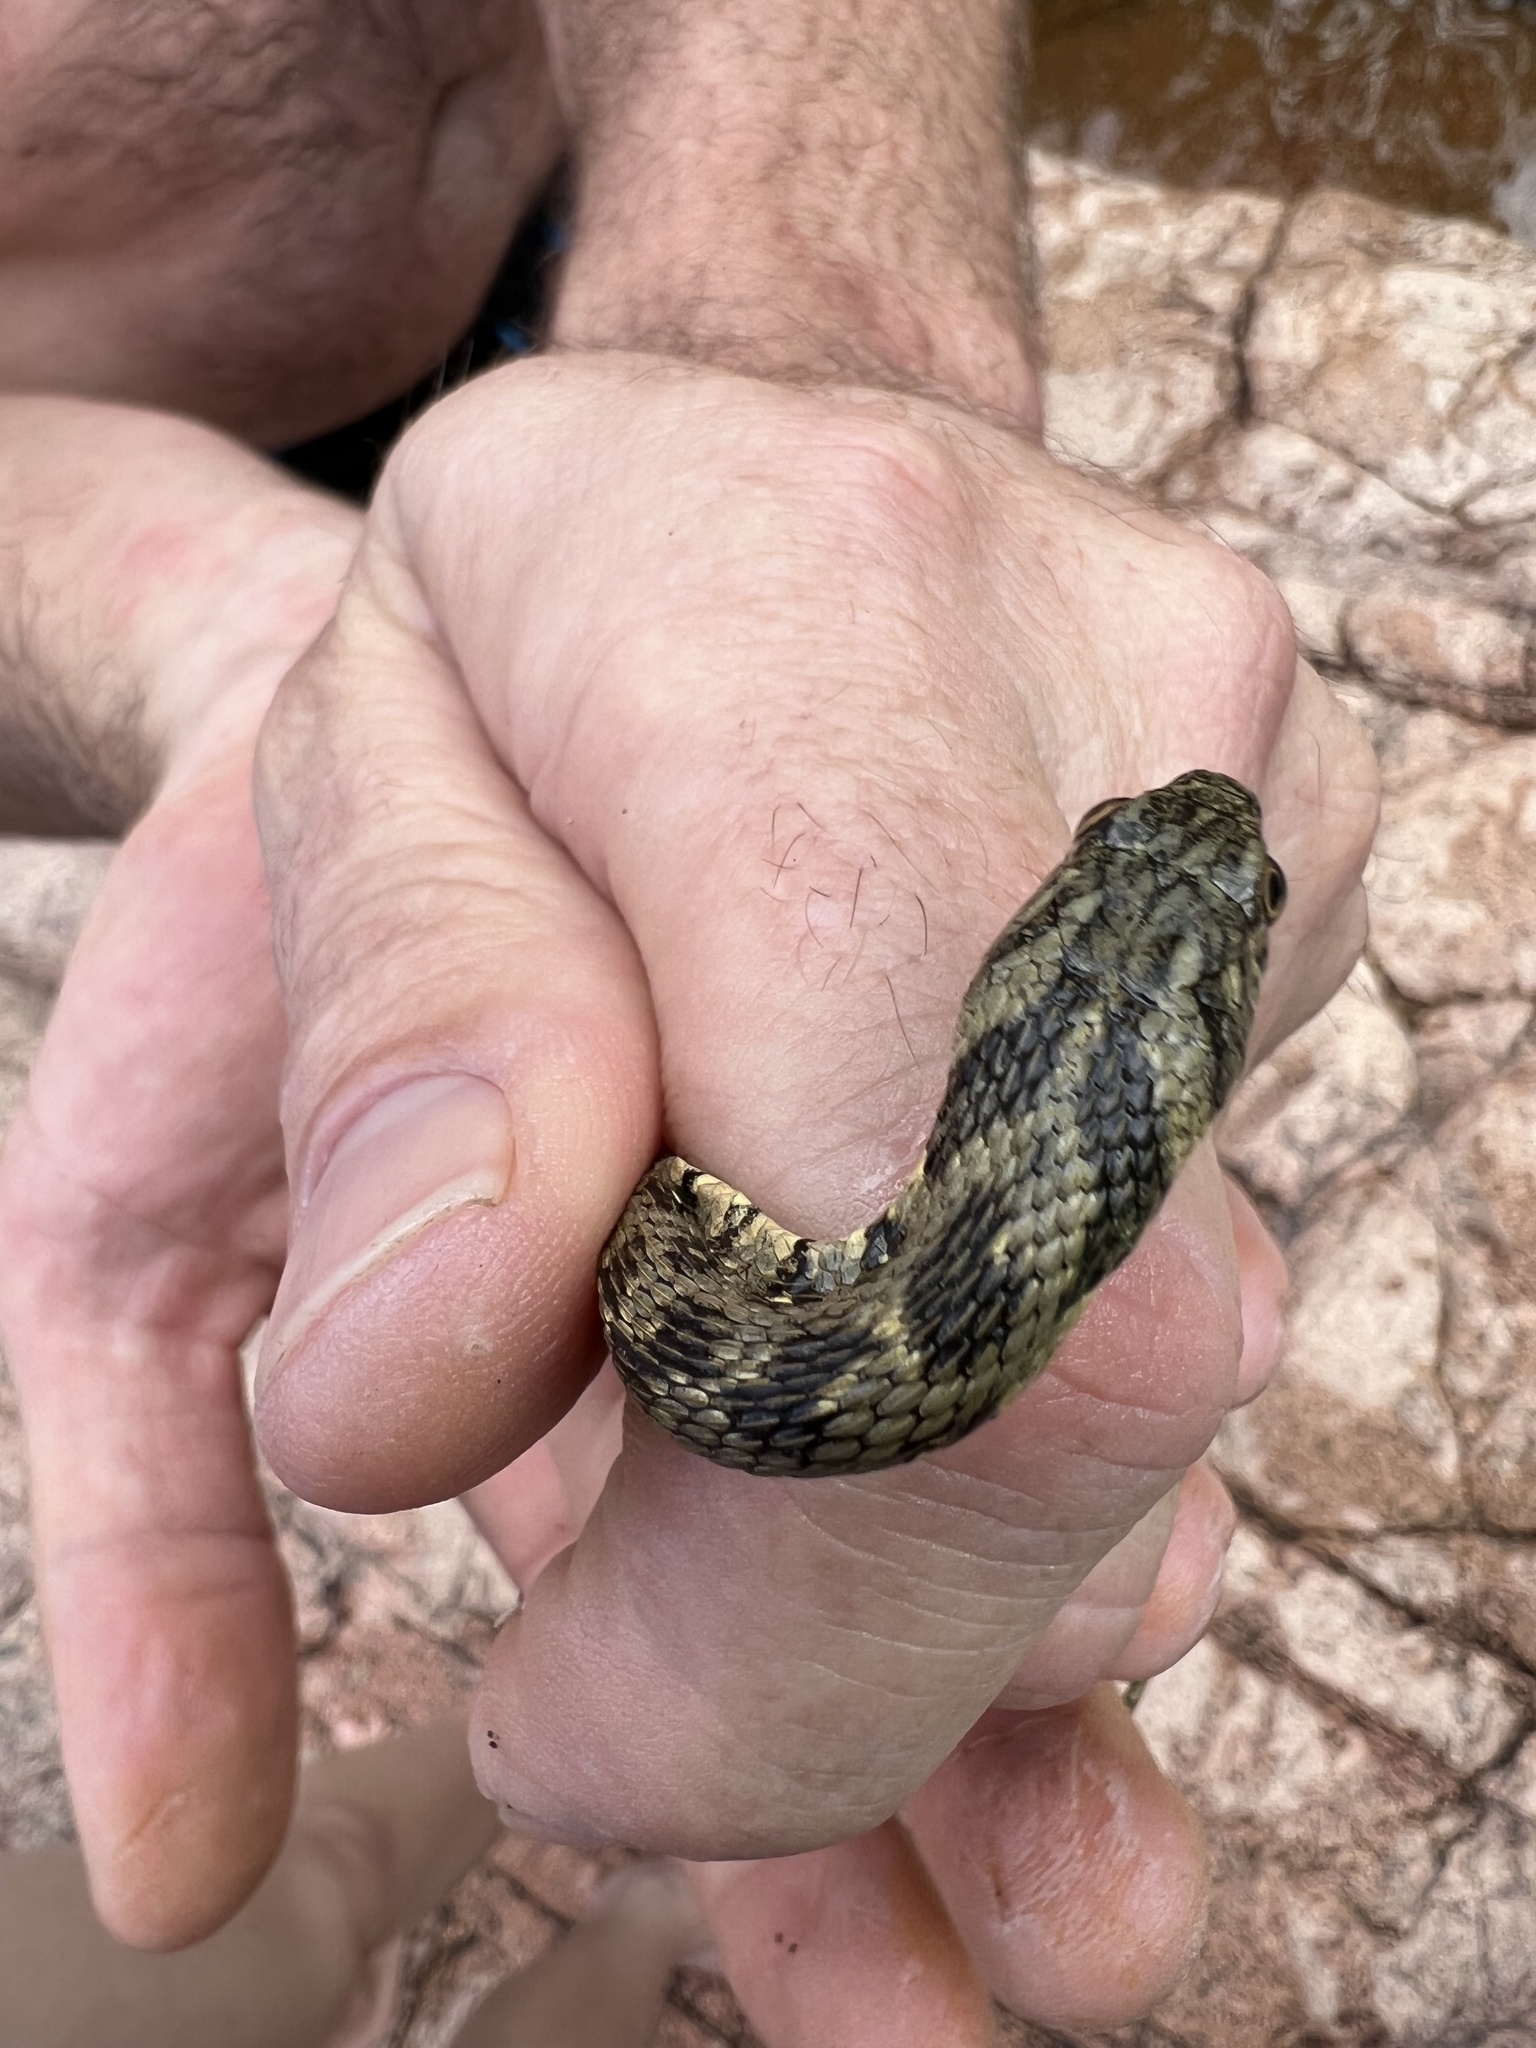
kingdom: Animalia
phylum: Chordata
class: Squamata
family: Colubridae
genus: Natrix
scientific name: Natrix maura
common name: Viperine water snake
